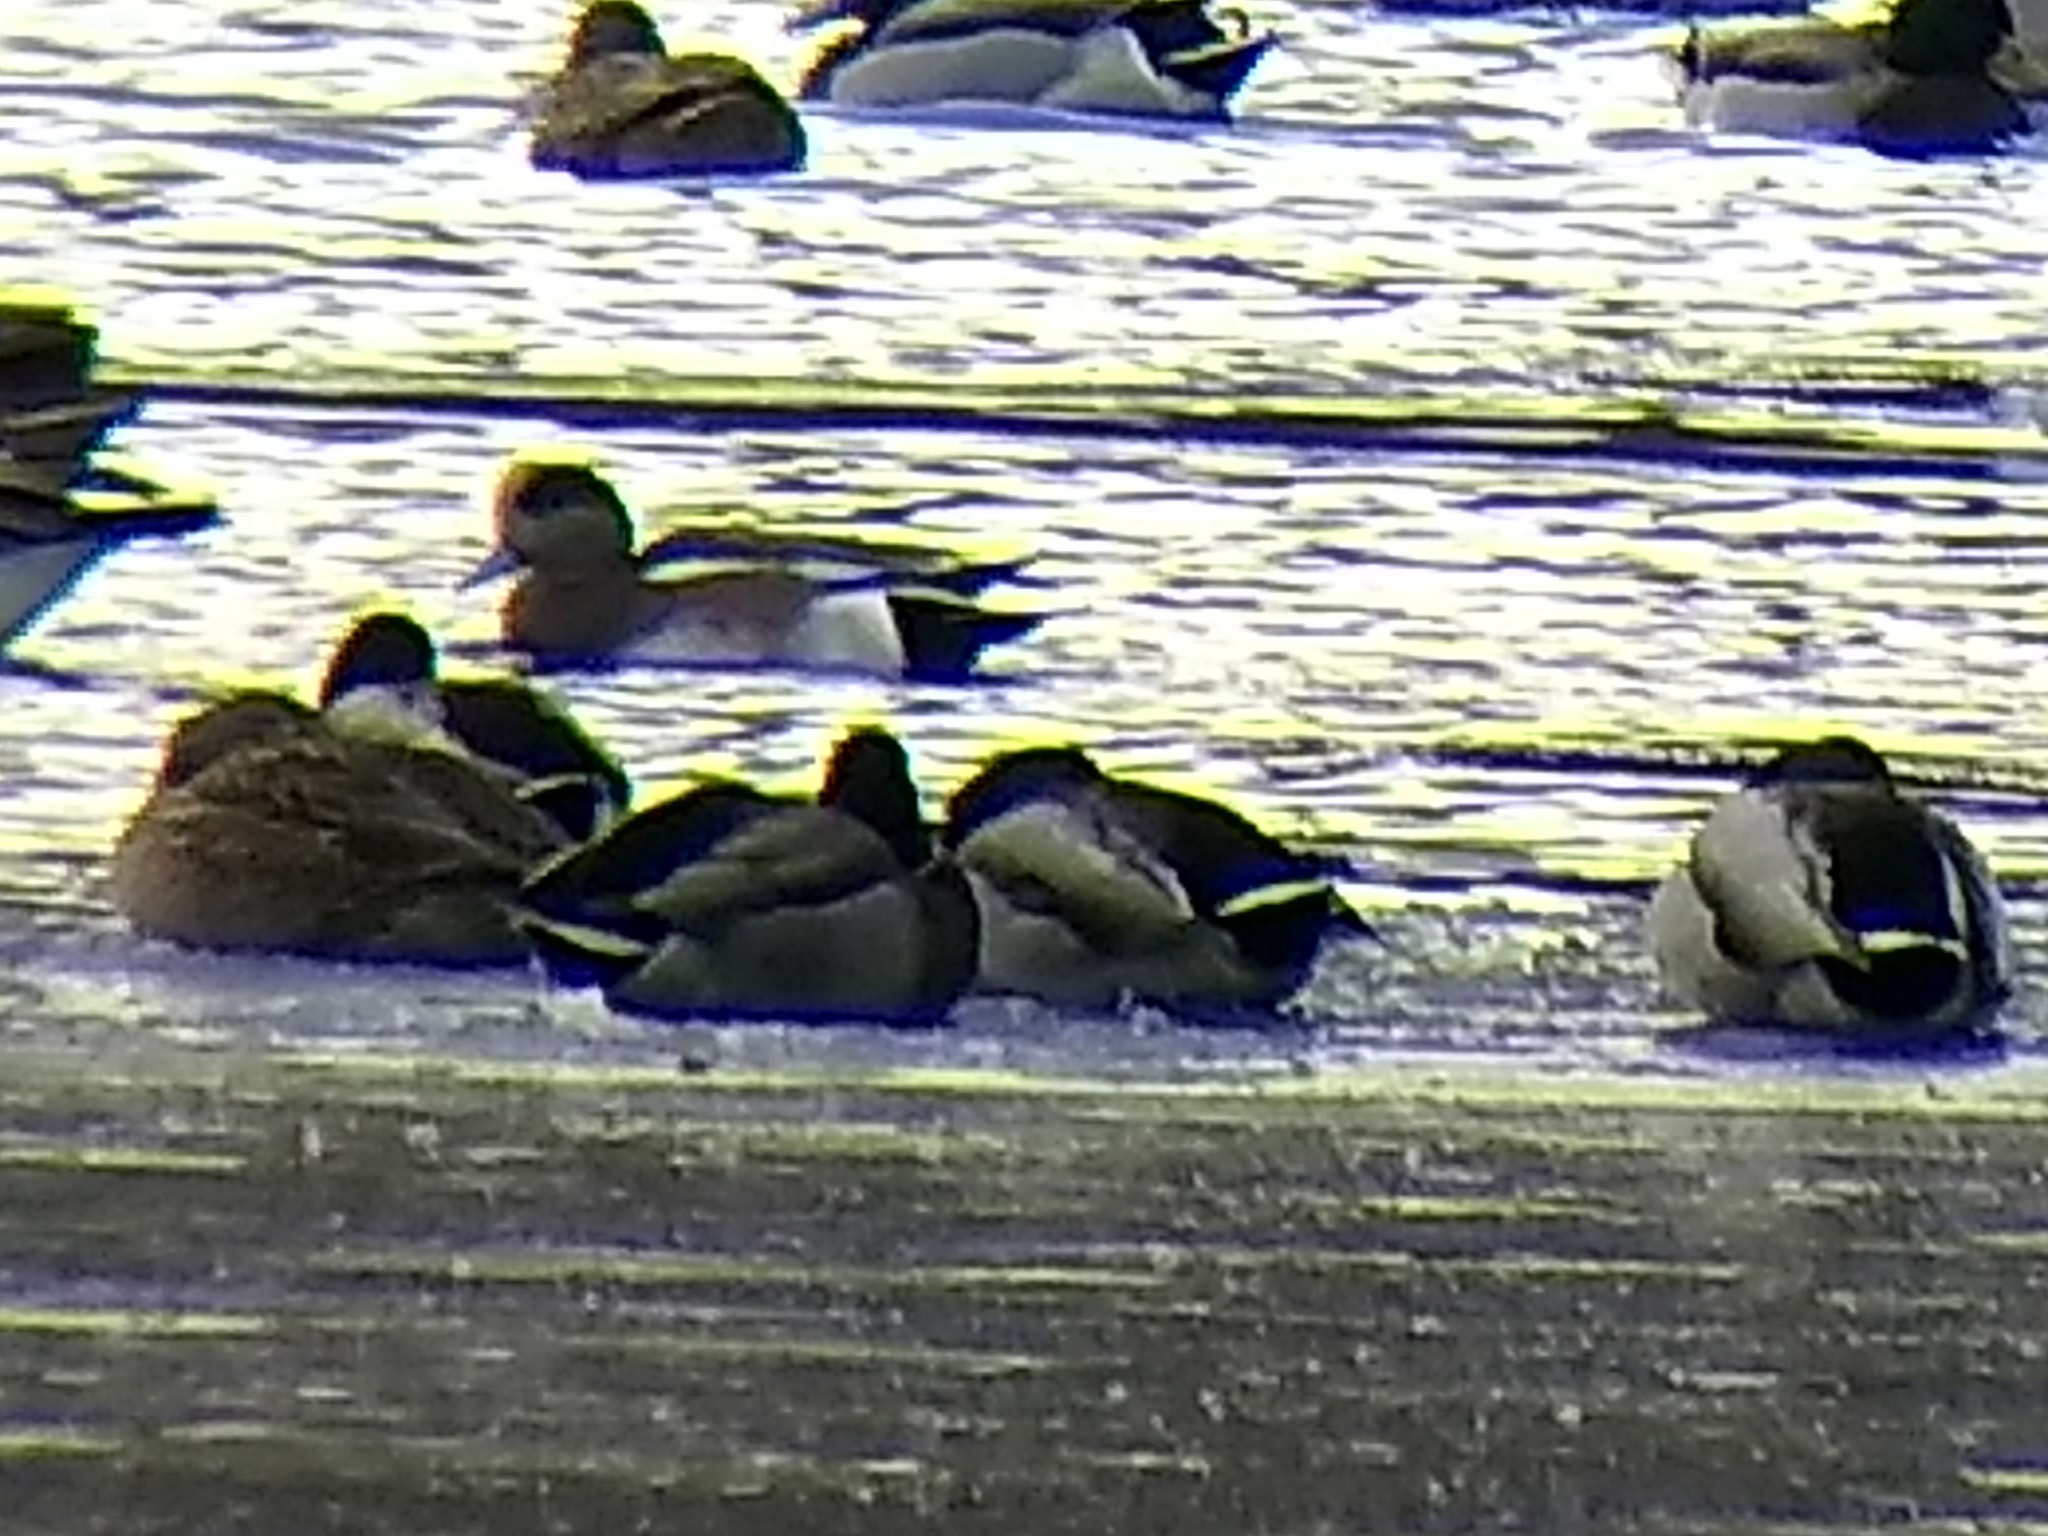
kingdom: Animalia
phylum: Chordata
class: Aves
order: Anseriformes
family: Anatidae
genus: Mareca
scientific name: Mareca americana
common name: American wigeon
